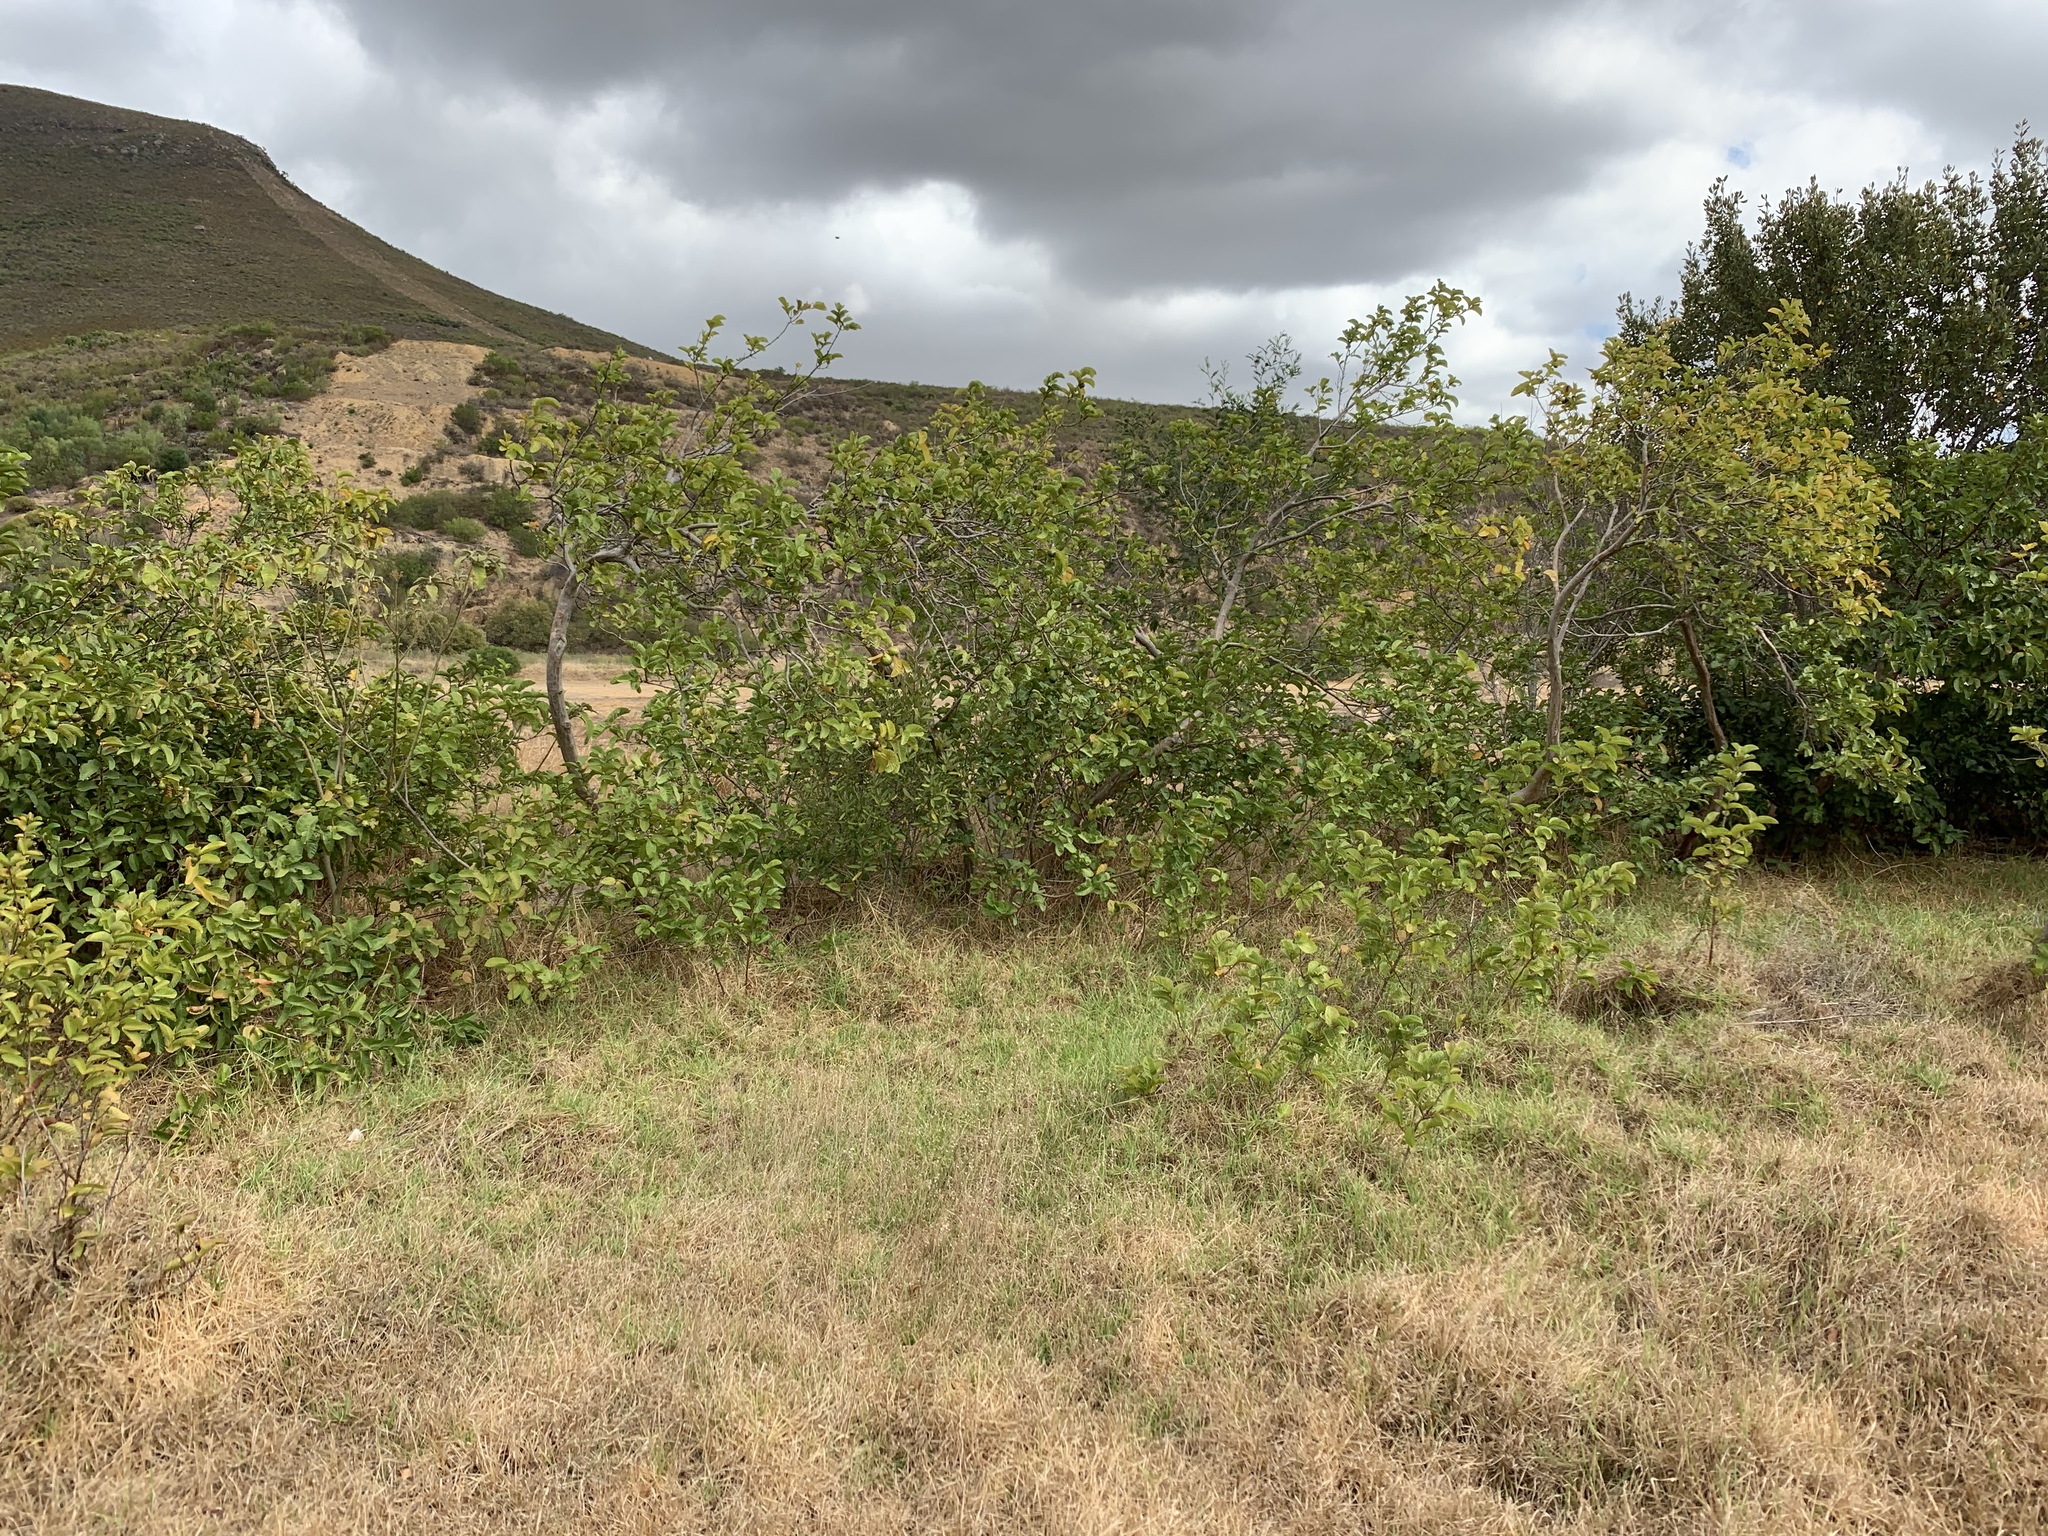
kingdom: Plantae
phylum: Tracheophyta
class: Magnoliopsida
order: Myrtales
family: Myrtaceae
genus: Psidium
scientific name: Psidium guajava
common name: Guava
